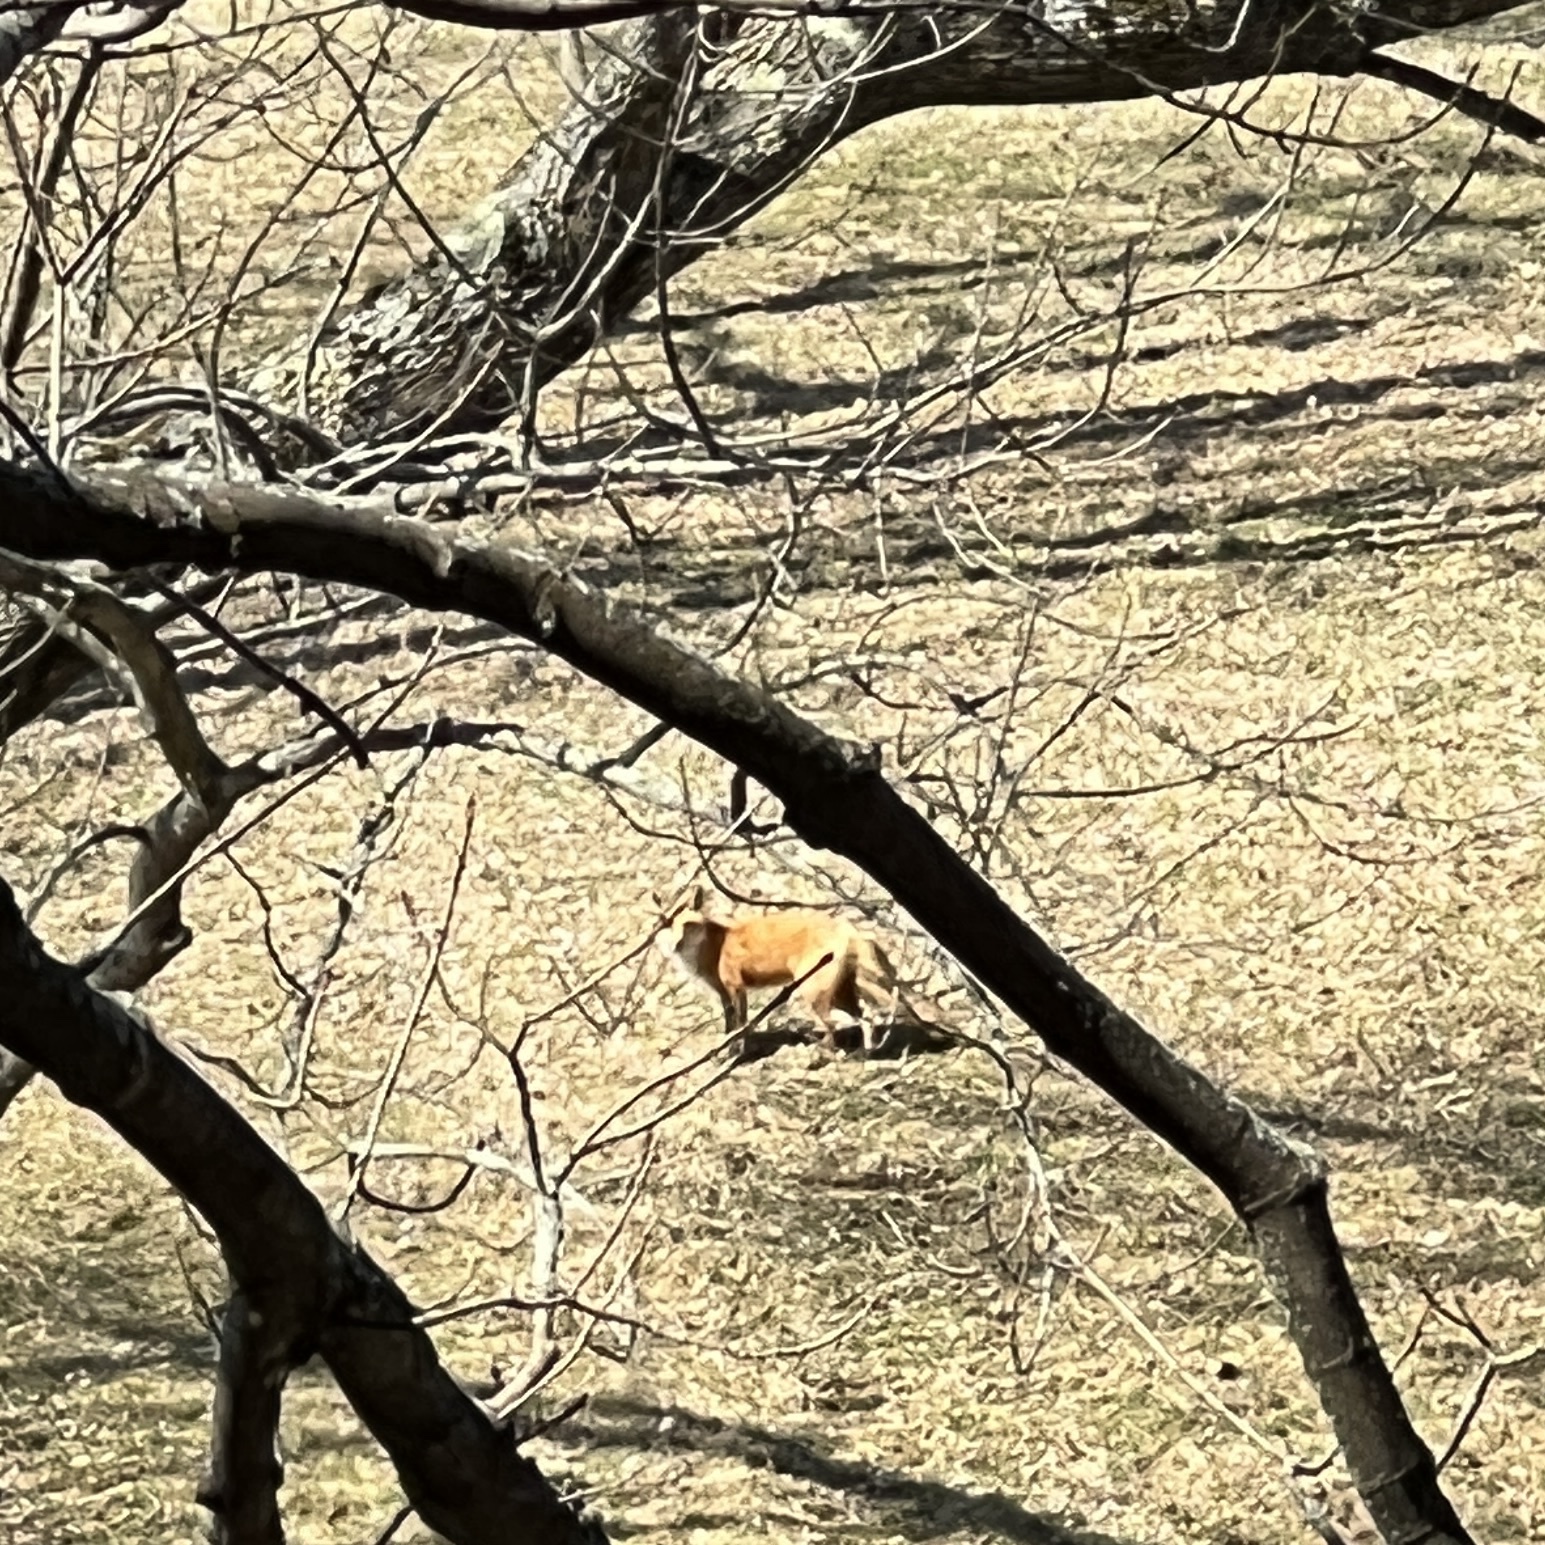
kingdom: Animalia
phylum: Chordata
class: Mammalia
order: Carnivora
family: Canidae
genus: Vulpes
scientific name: Vulpes vulpes
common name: Red fox
